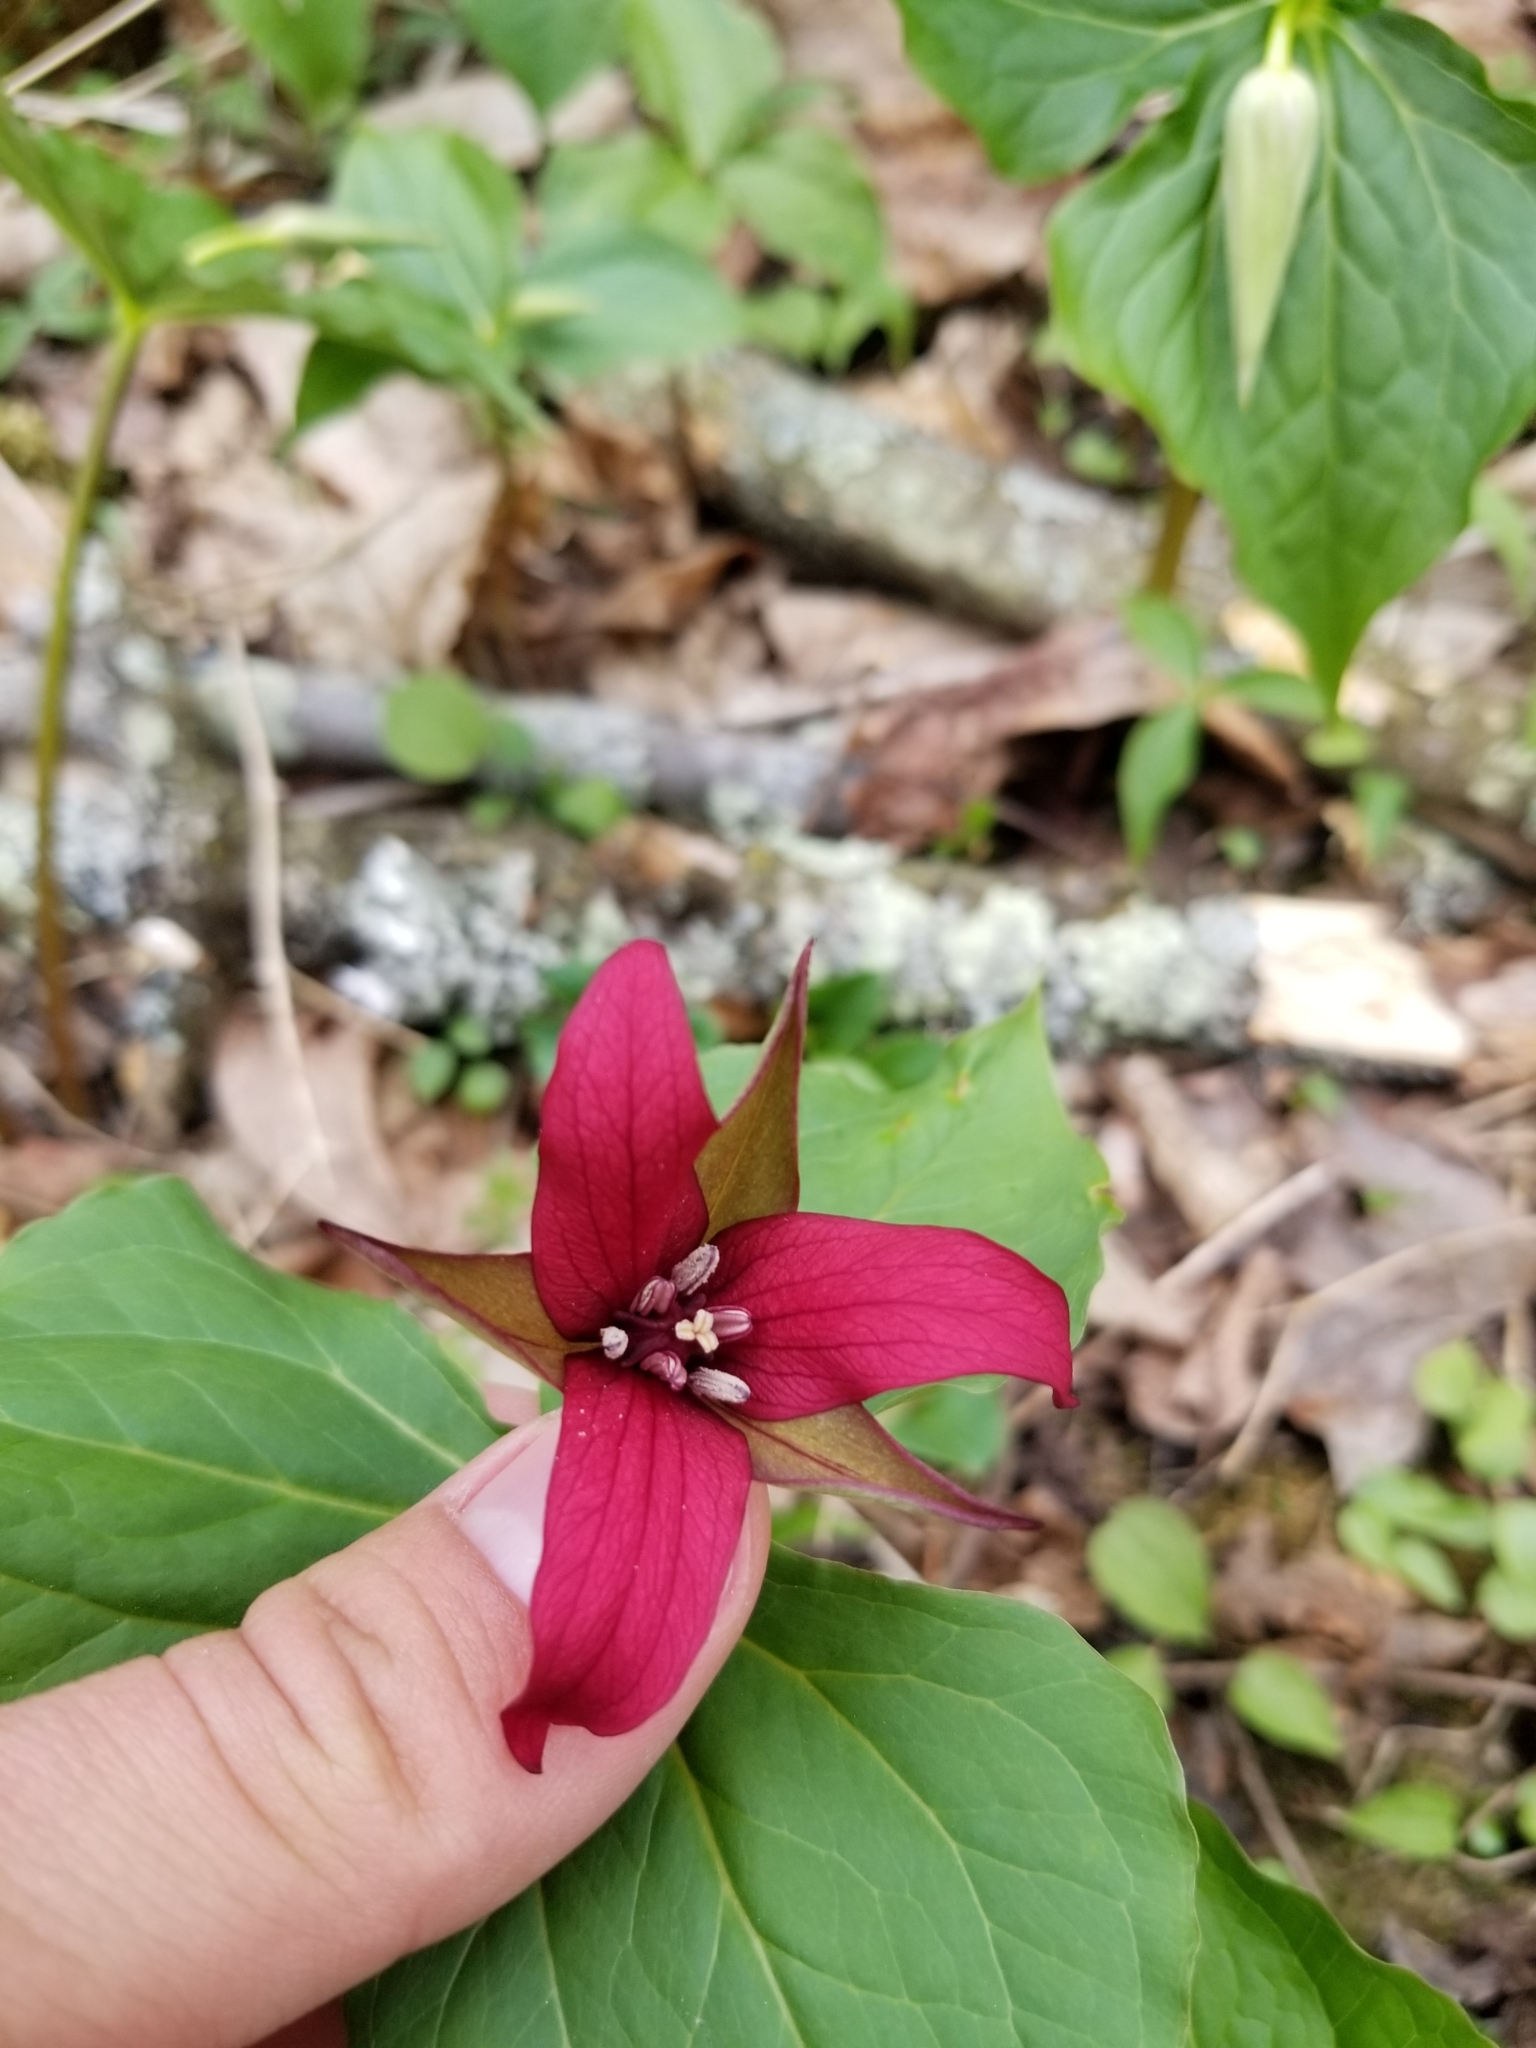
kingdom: Plantae
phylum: Tracheophyta
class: Liliopsida
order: Liliales
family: Melanthiaceae
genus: Trillium
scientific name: Trillium erectum
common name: Purple trillium
